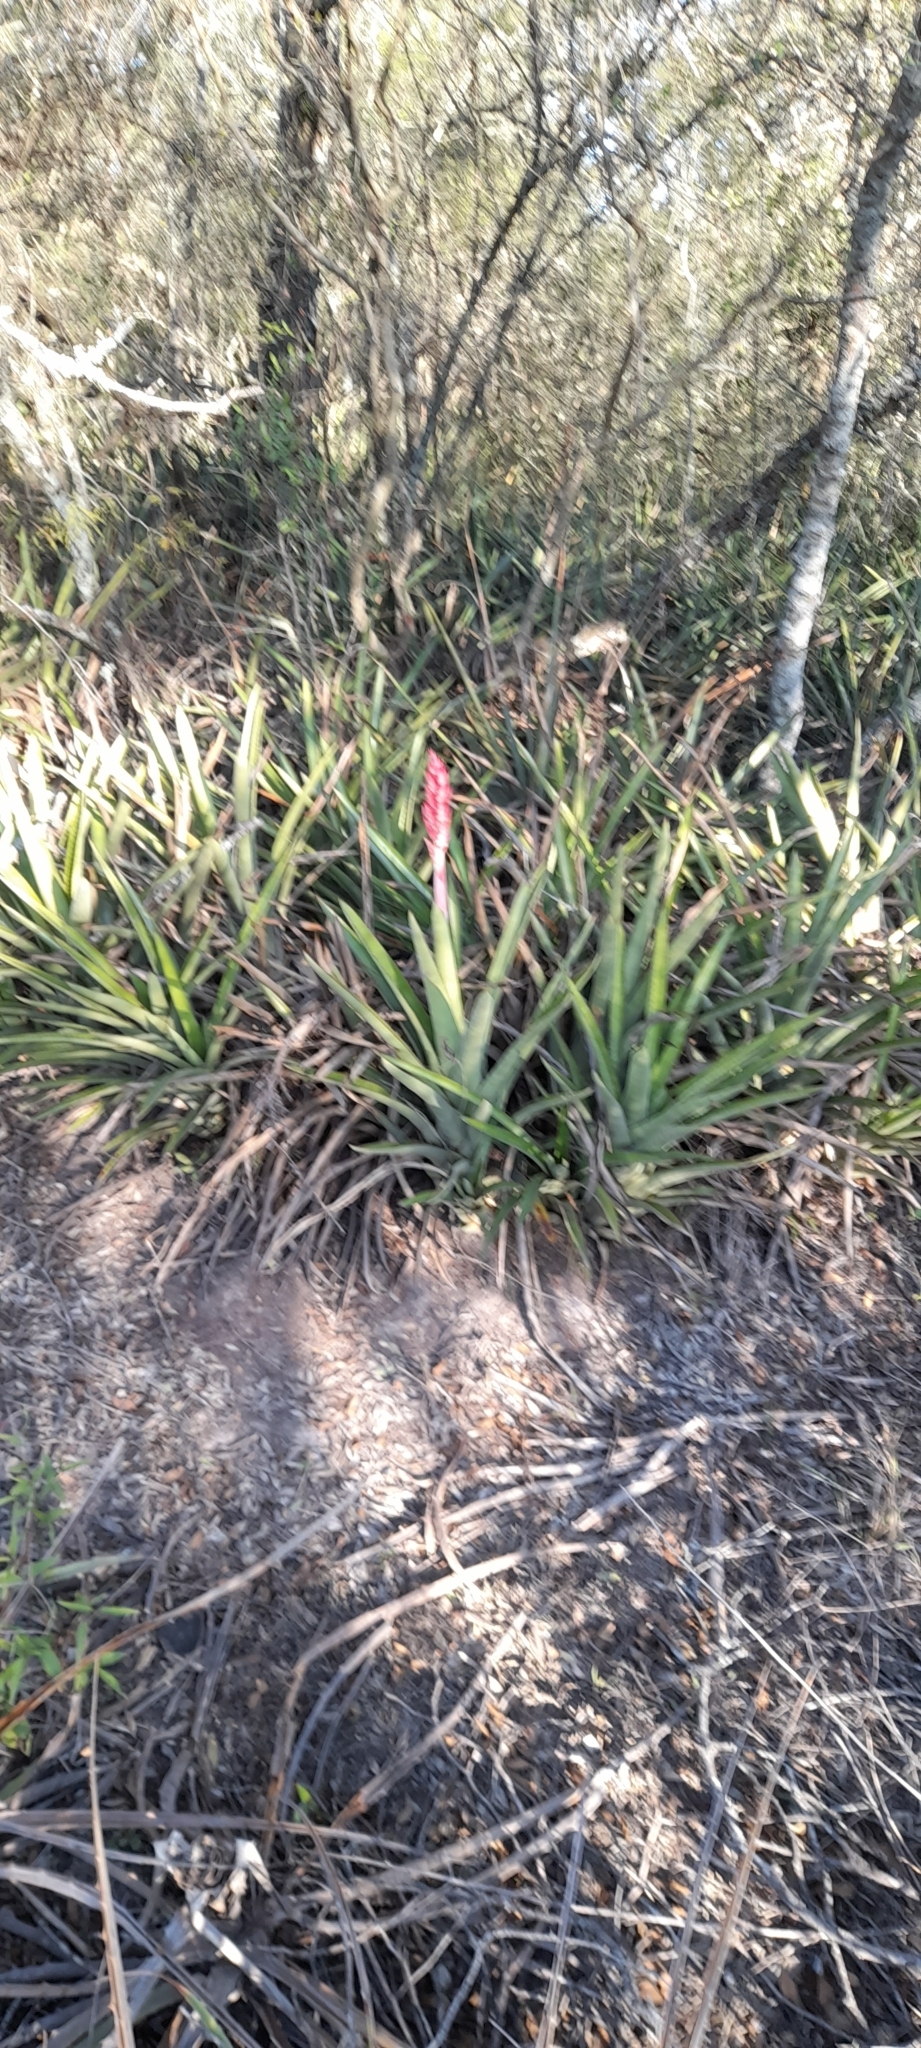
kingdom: Plantae
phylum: Tracheophyta
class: Liliopsida
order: Poales
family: Bromeliaceae
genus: Aechmea
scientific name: Aechmea distichantha
